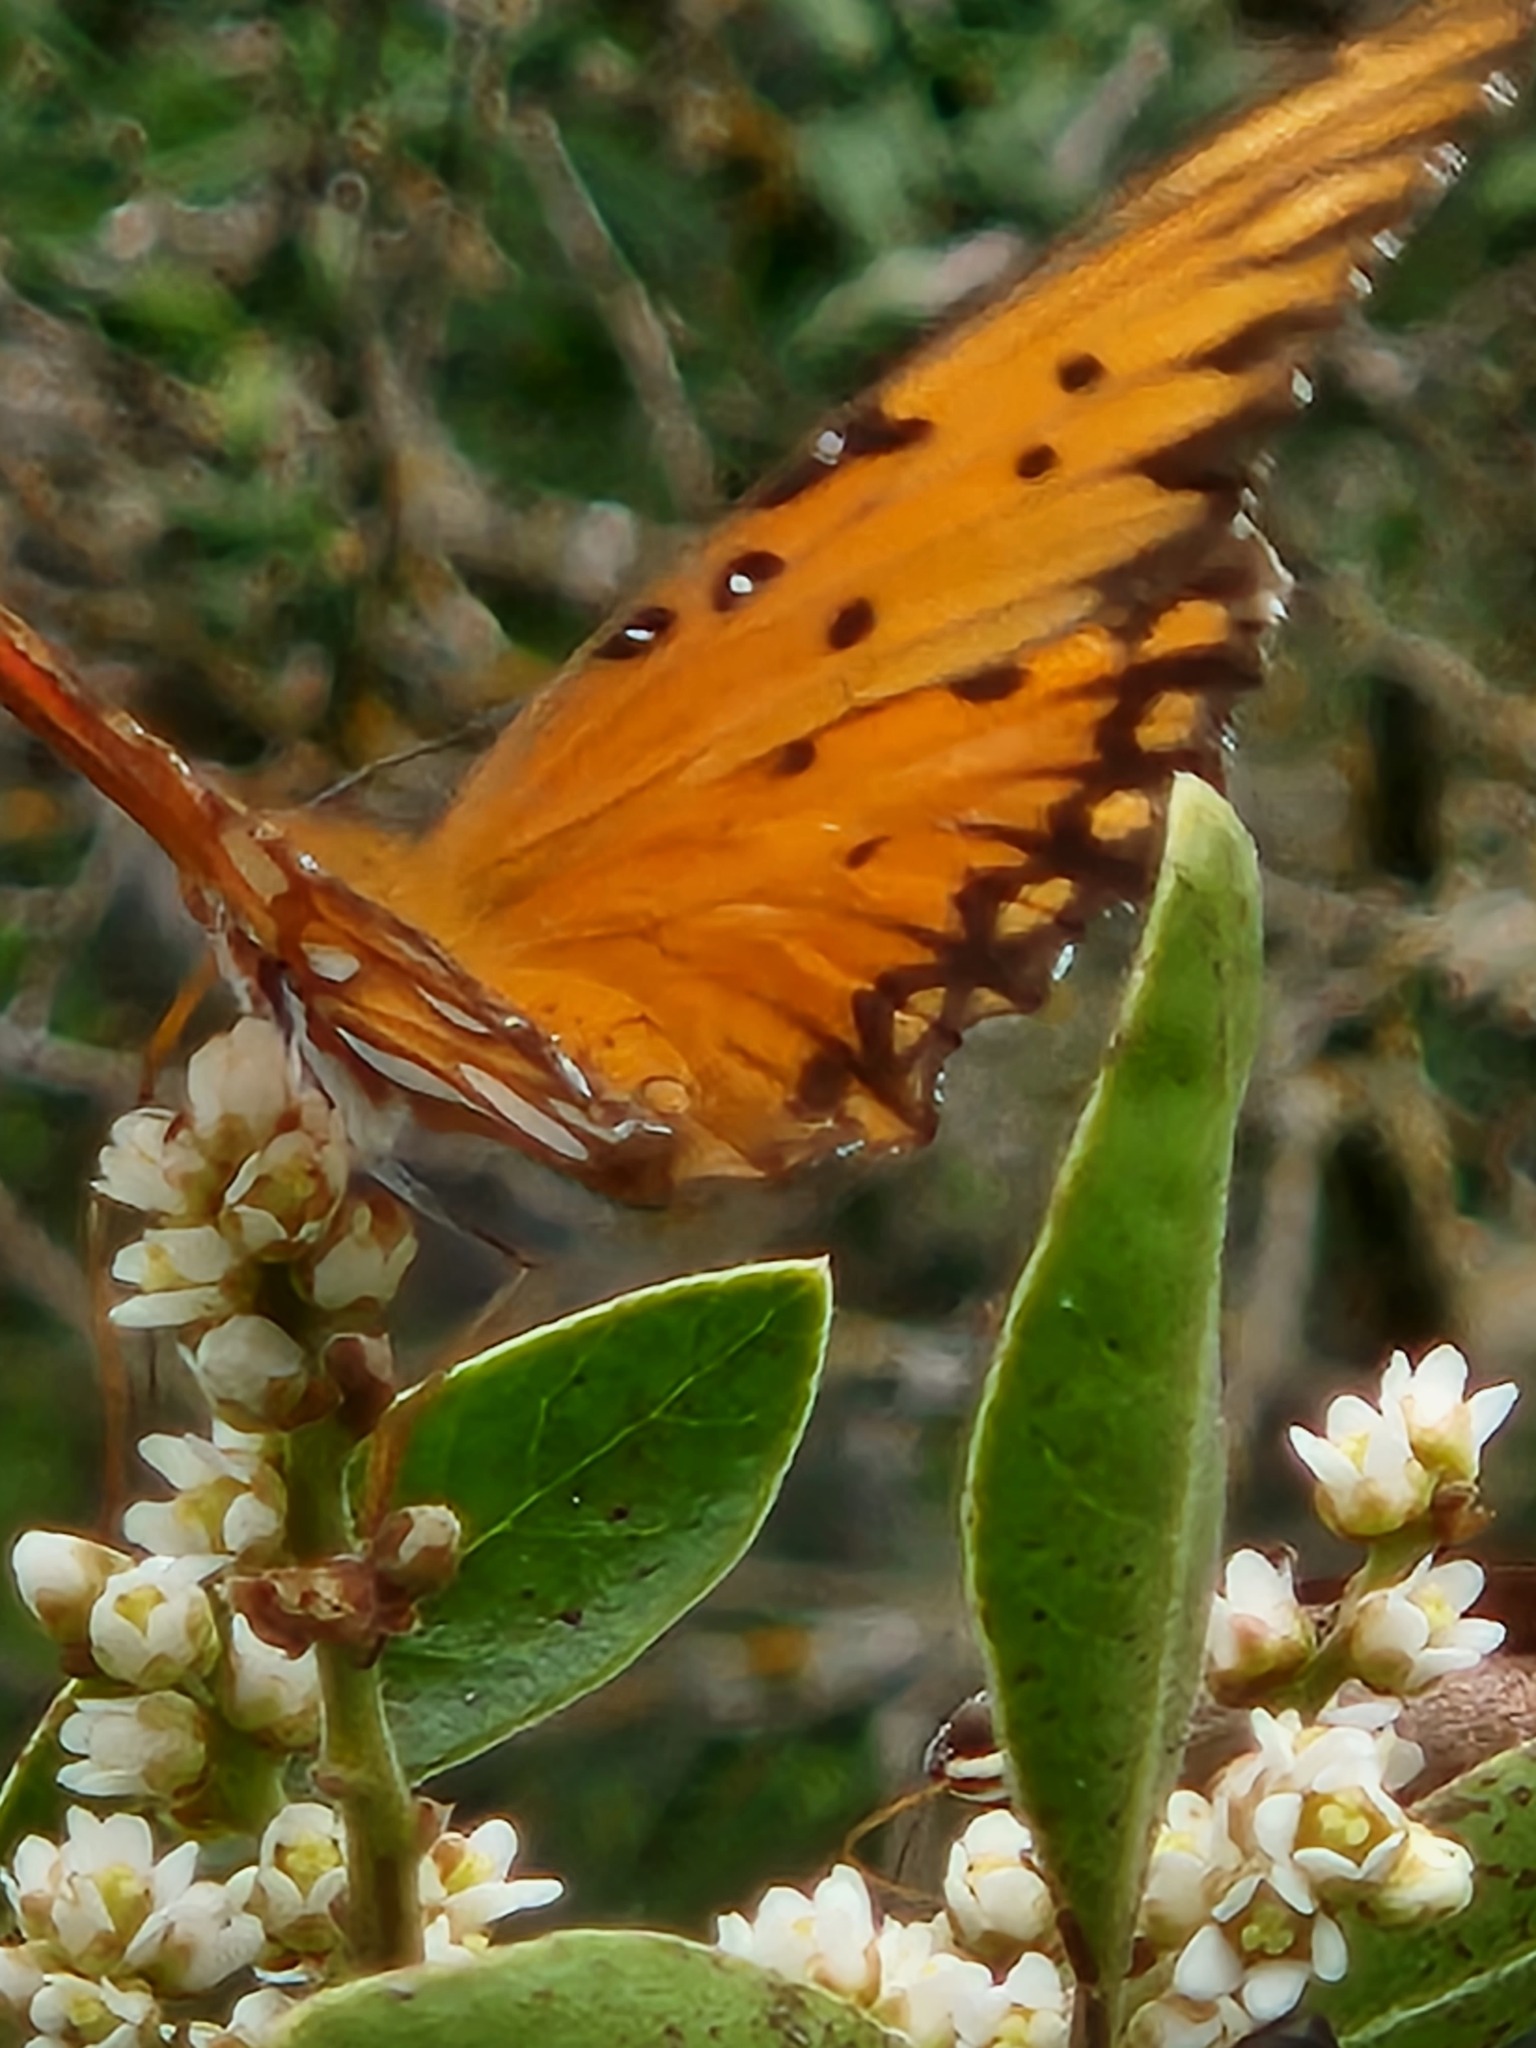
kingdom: Animalia
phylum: Arthropoda
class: Insecta
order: Lepidoptera
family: Nymphalidae
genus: Dione
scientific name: Dione vanillae
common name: Gulf fritillary
